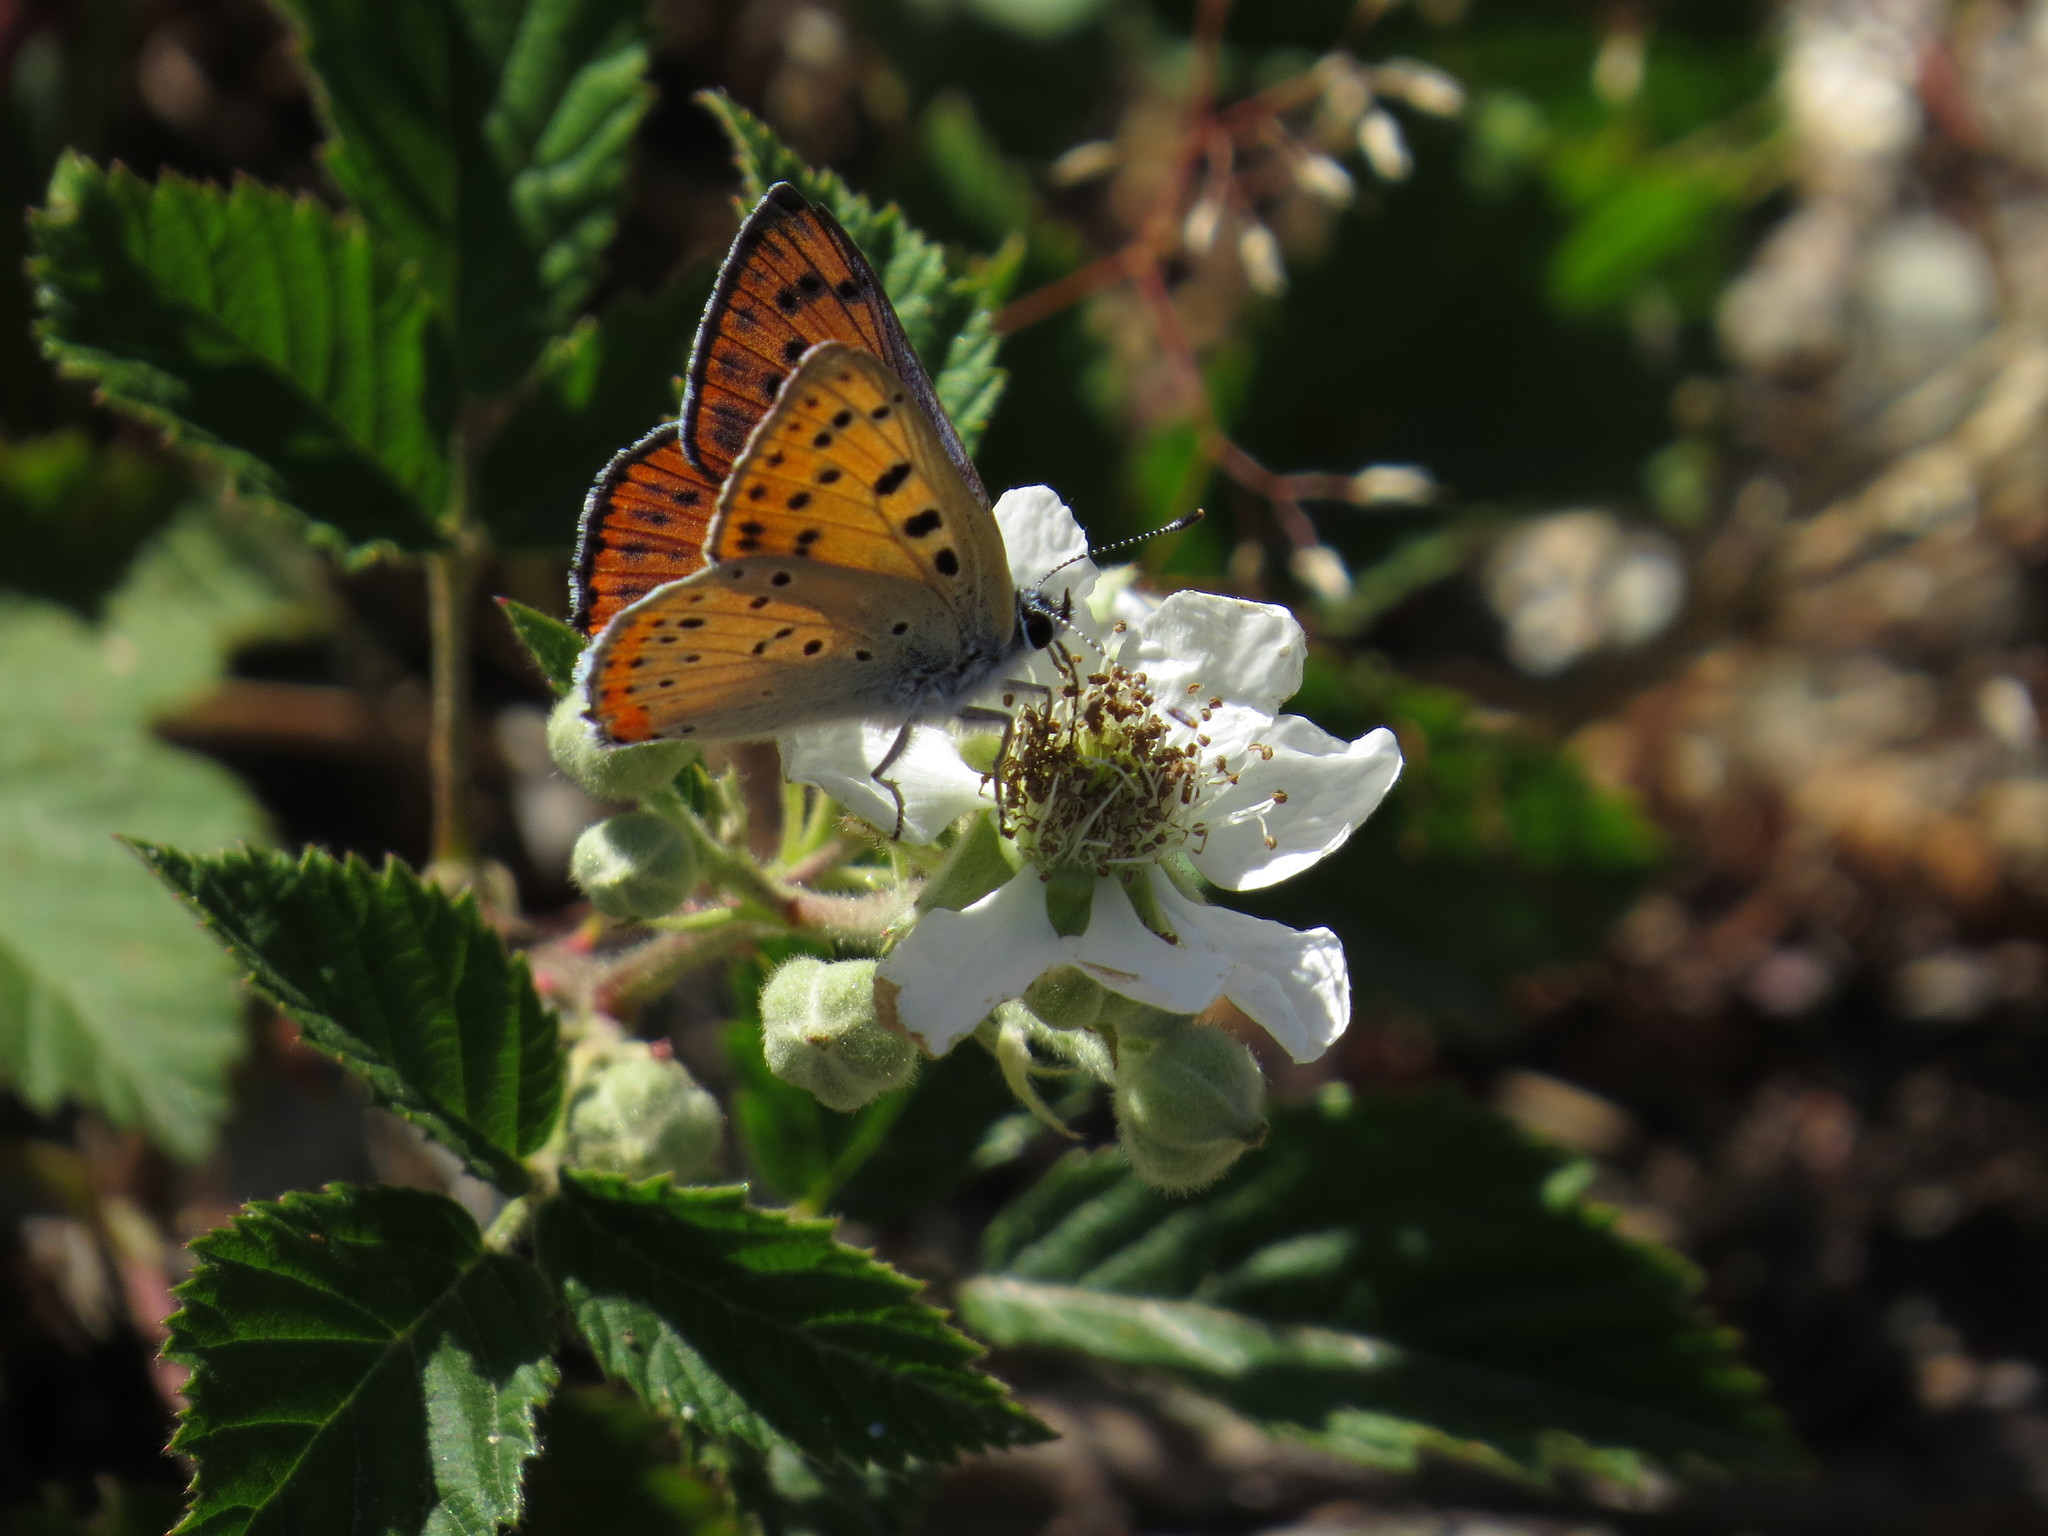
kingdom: Animalia
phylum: Arthropoda
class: Insecta
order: Lepidoptera
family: Lycaenidae
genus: Lycaena
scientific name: Lycaena alciphron
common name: Purple-shot copper
